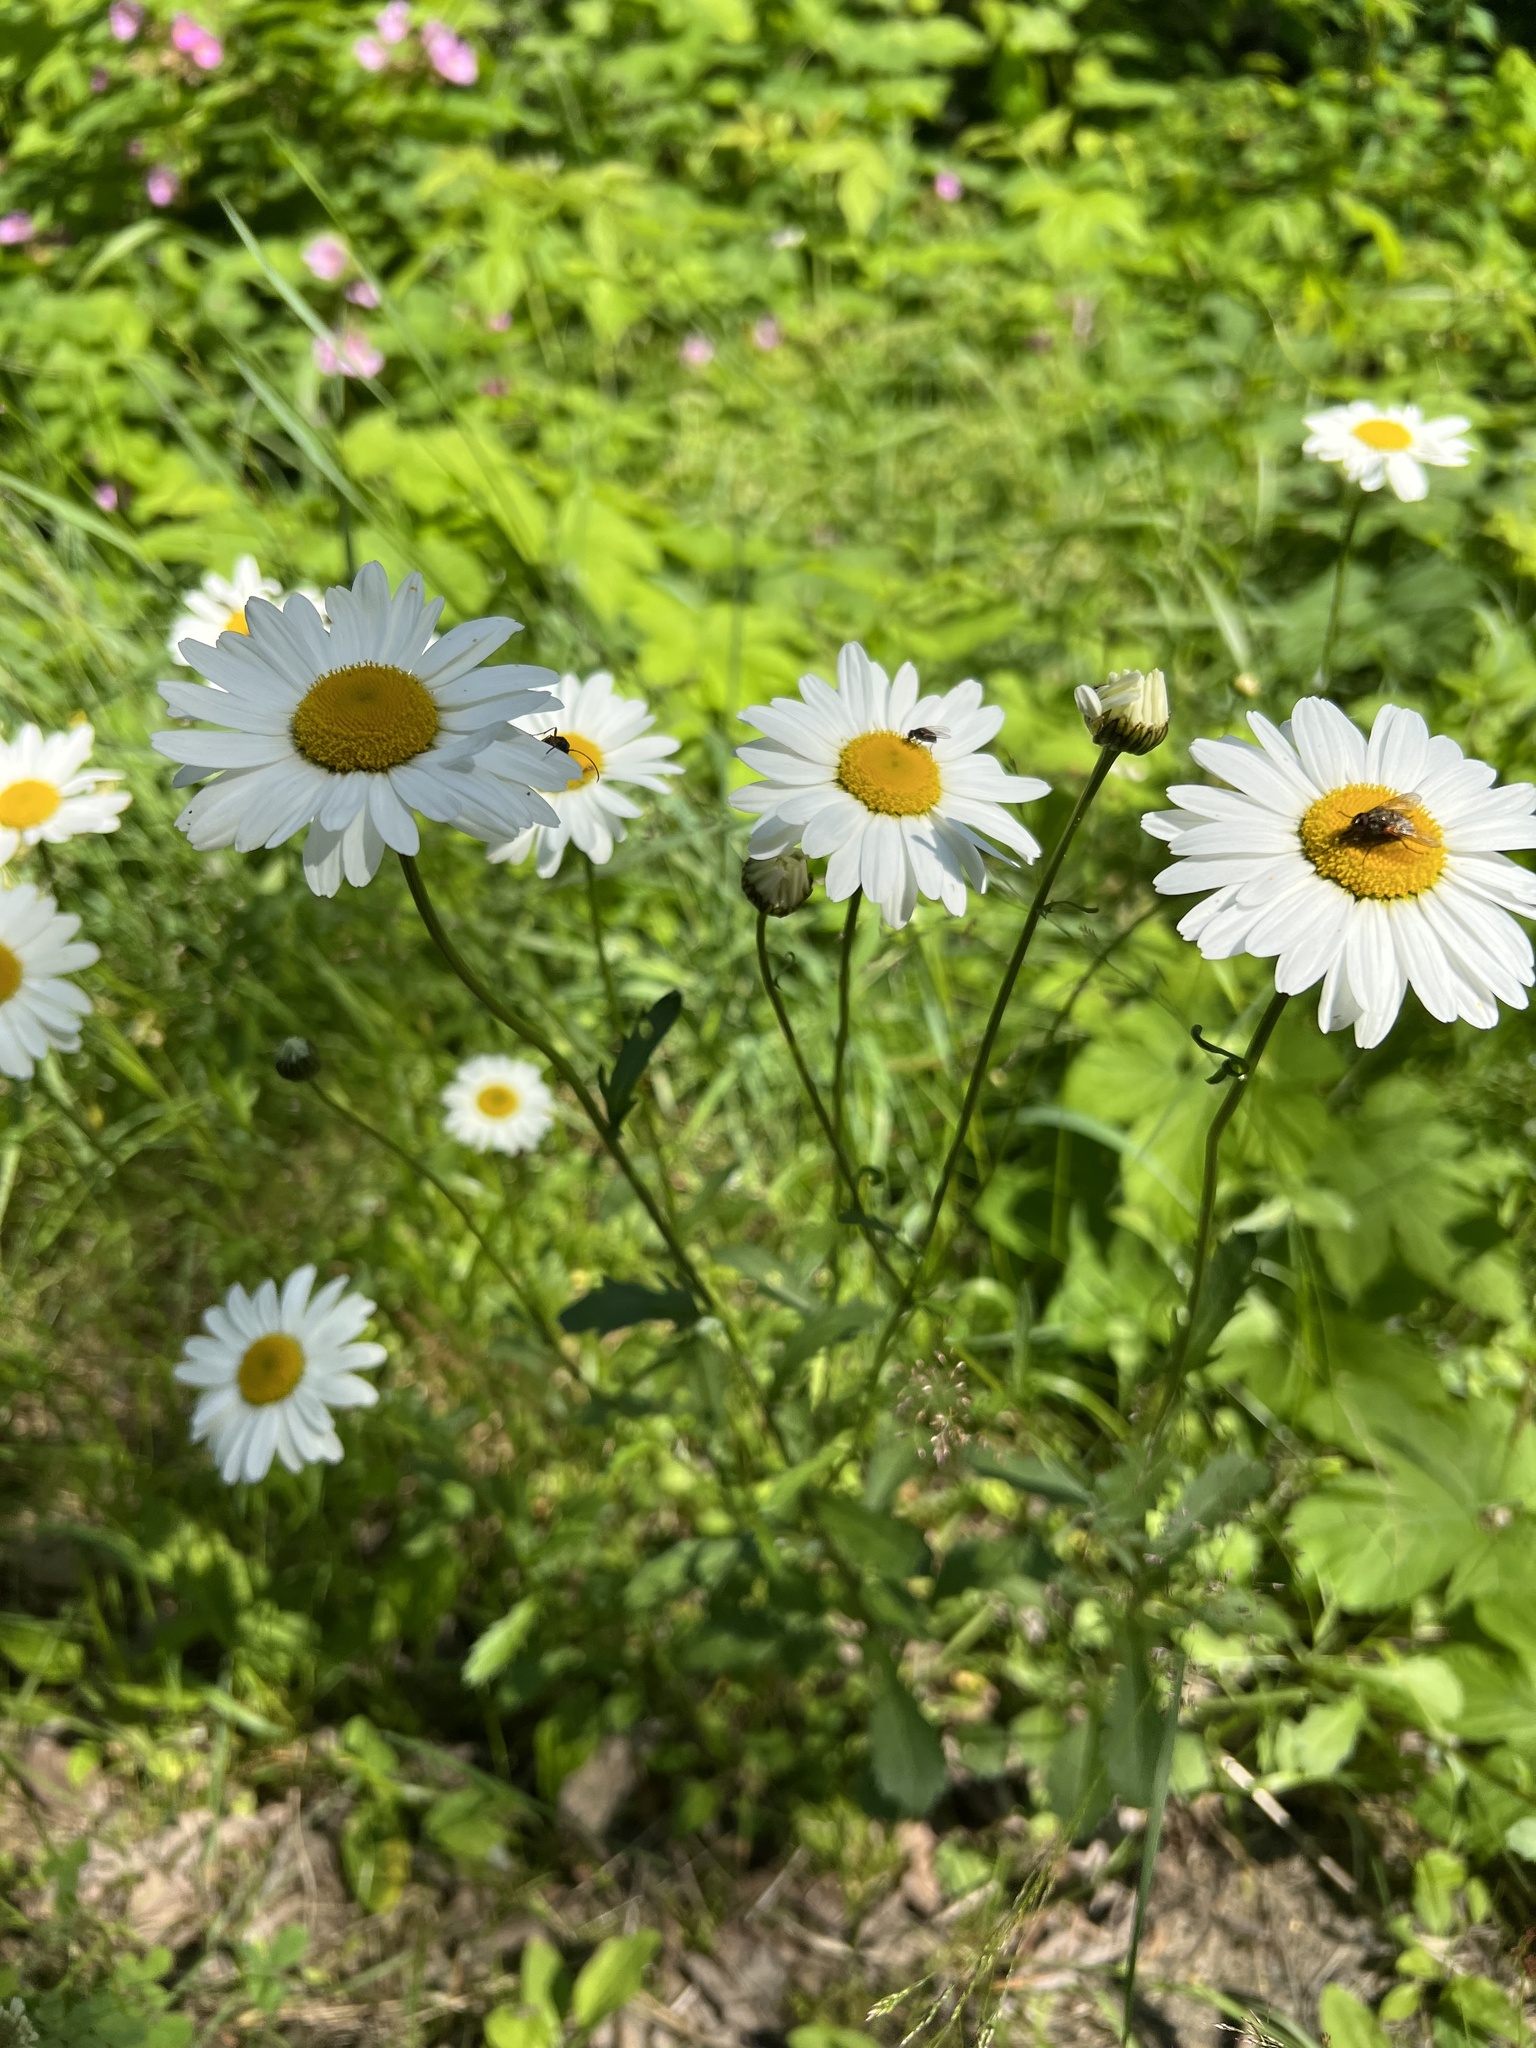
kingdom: Plantae
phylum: Tracheophyta
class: Magnoliopsida
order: Asterales
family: Asteraceae
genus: Leucanthemum
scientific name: Leucanthemum vulgare
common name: Oxeye daisy
